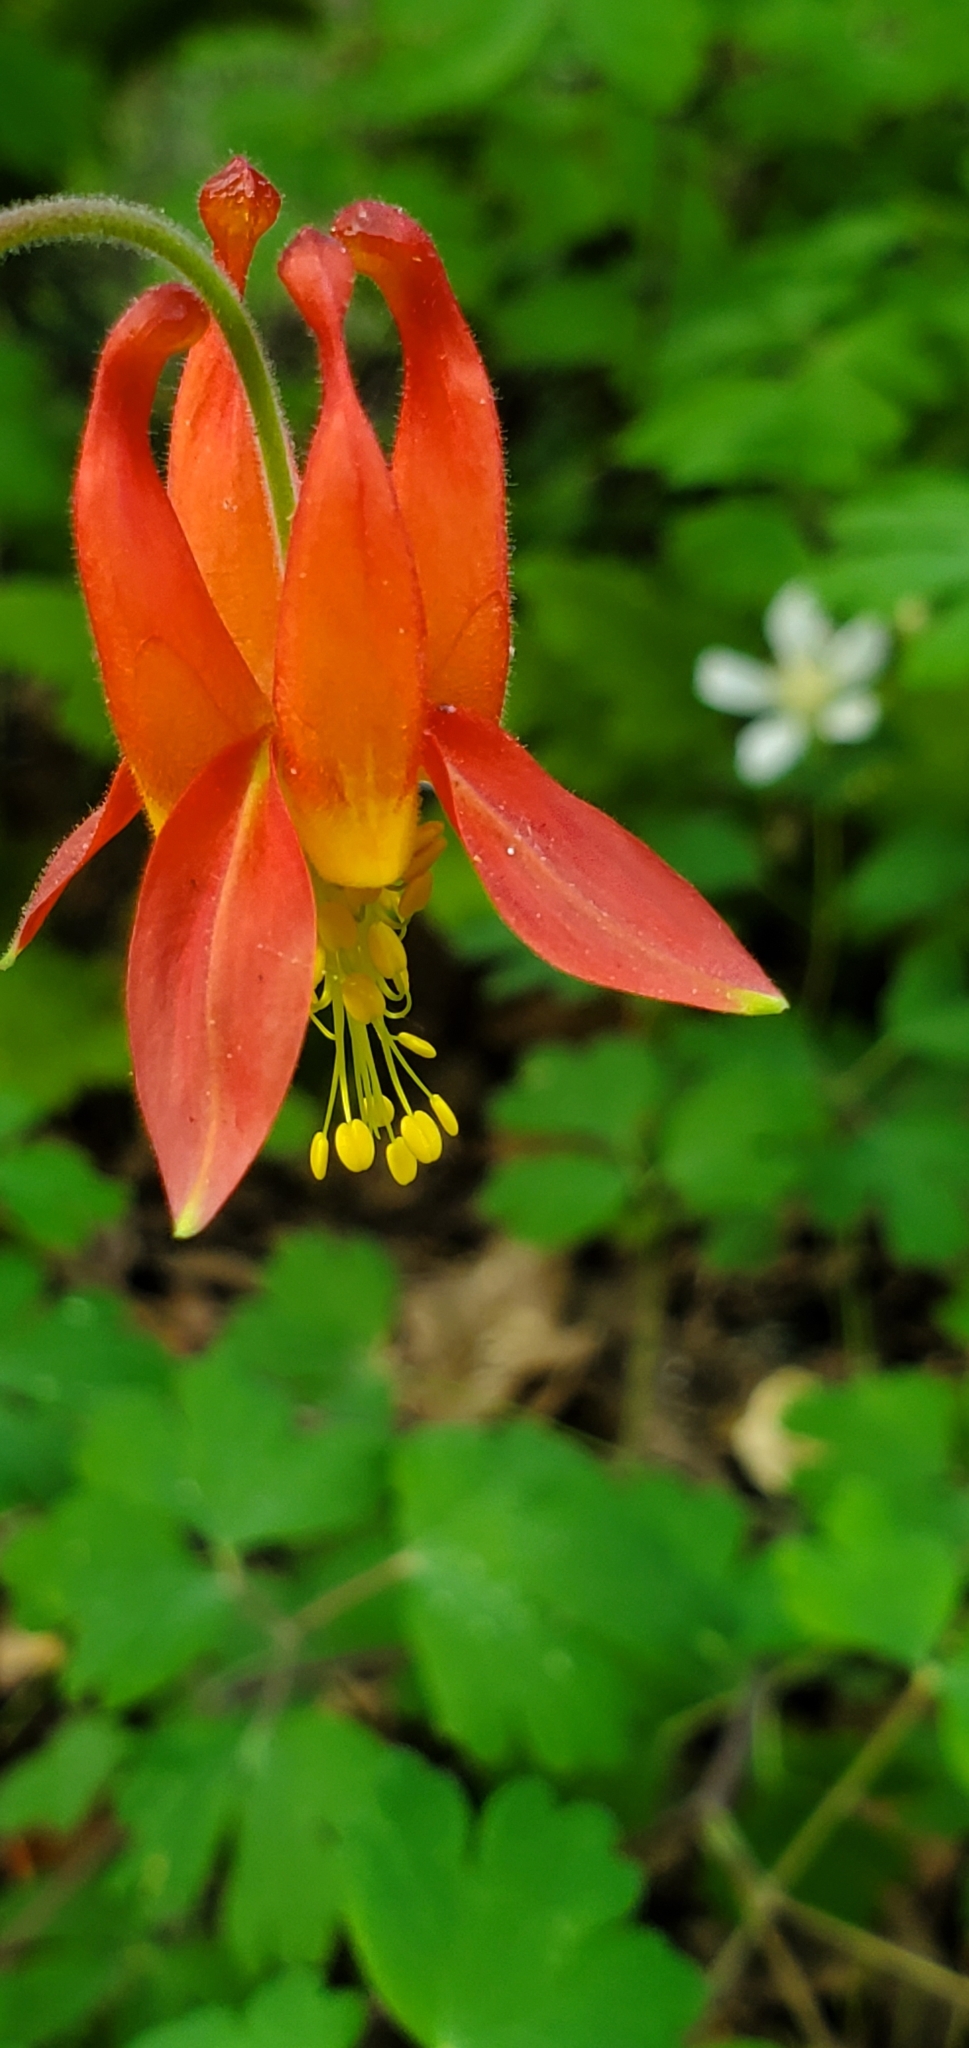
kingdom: Plantae
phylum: Tracheophyta
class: Magnoliopsida
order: Ranunculales
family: Ranunculaceae
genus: Aquilegia
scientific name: Aquilegia formosa
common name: Sitka columbine
